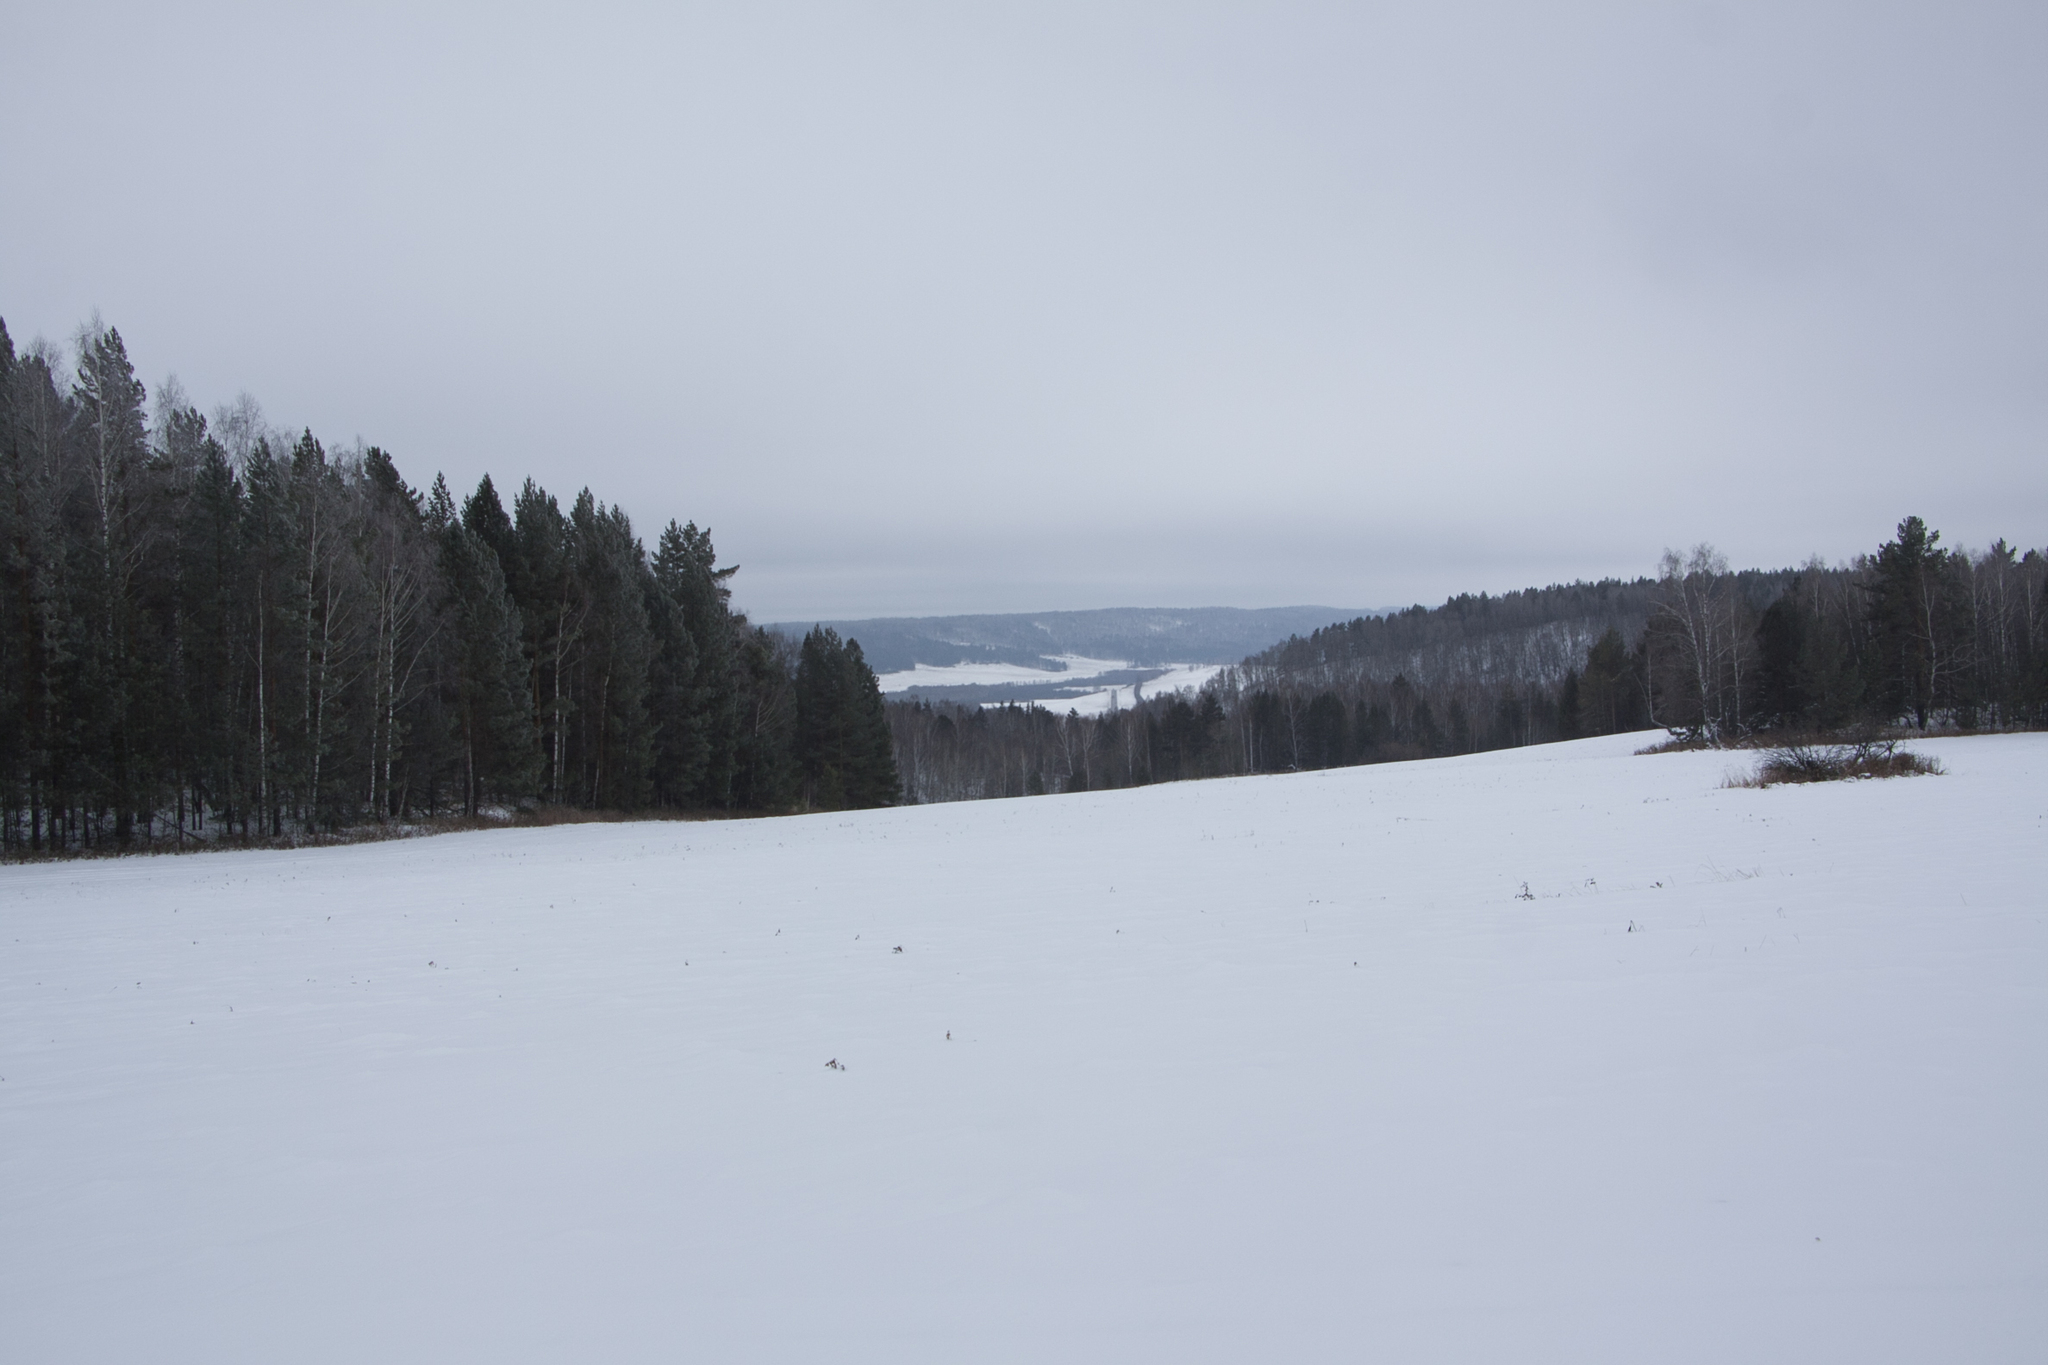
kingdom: Plantae
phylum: Tracheophyta
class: Pinopsida
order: Pinales
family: Pinaceae
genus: Pinus
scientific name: Pinus sylvestris
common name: Scots pine
